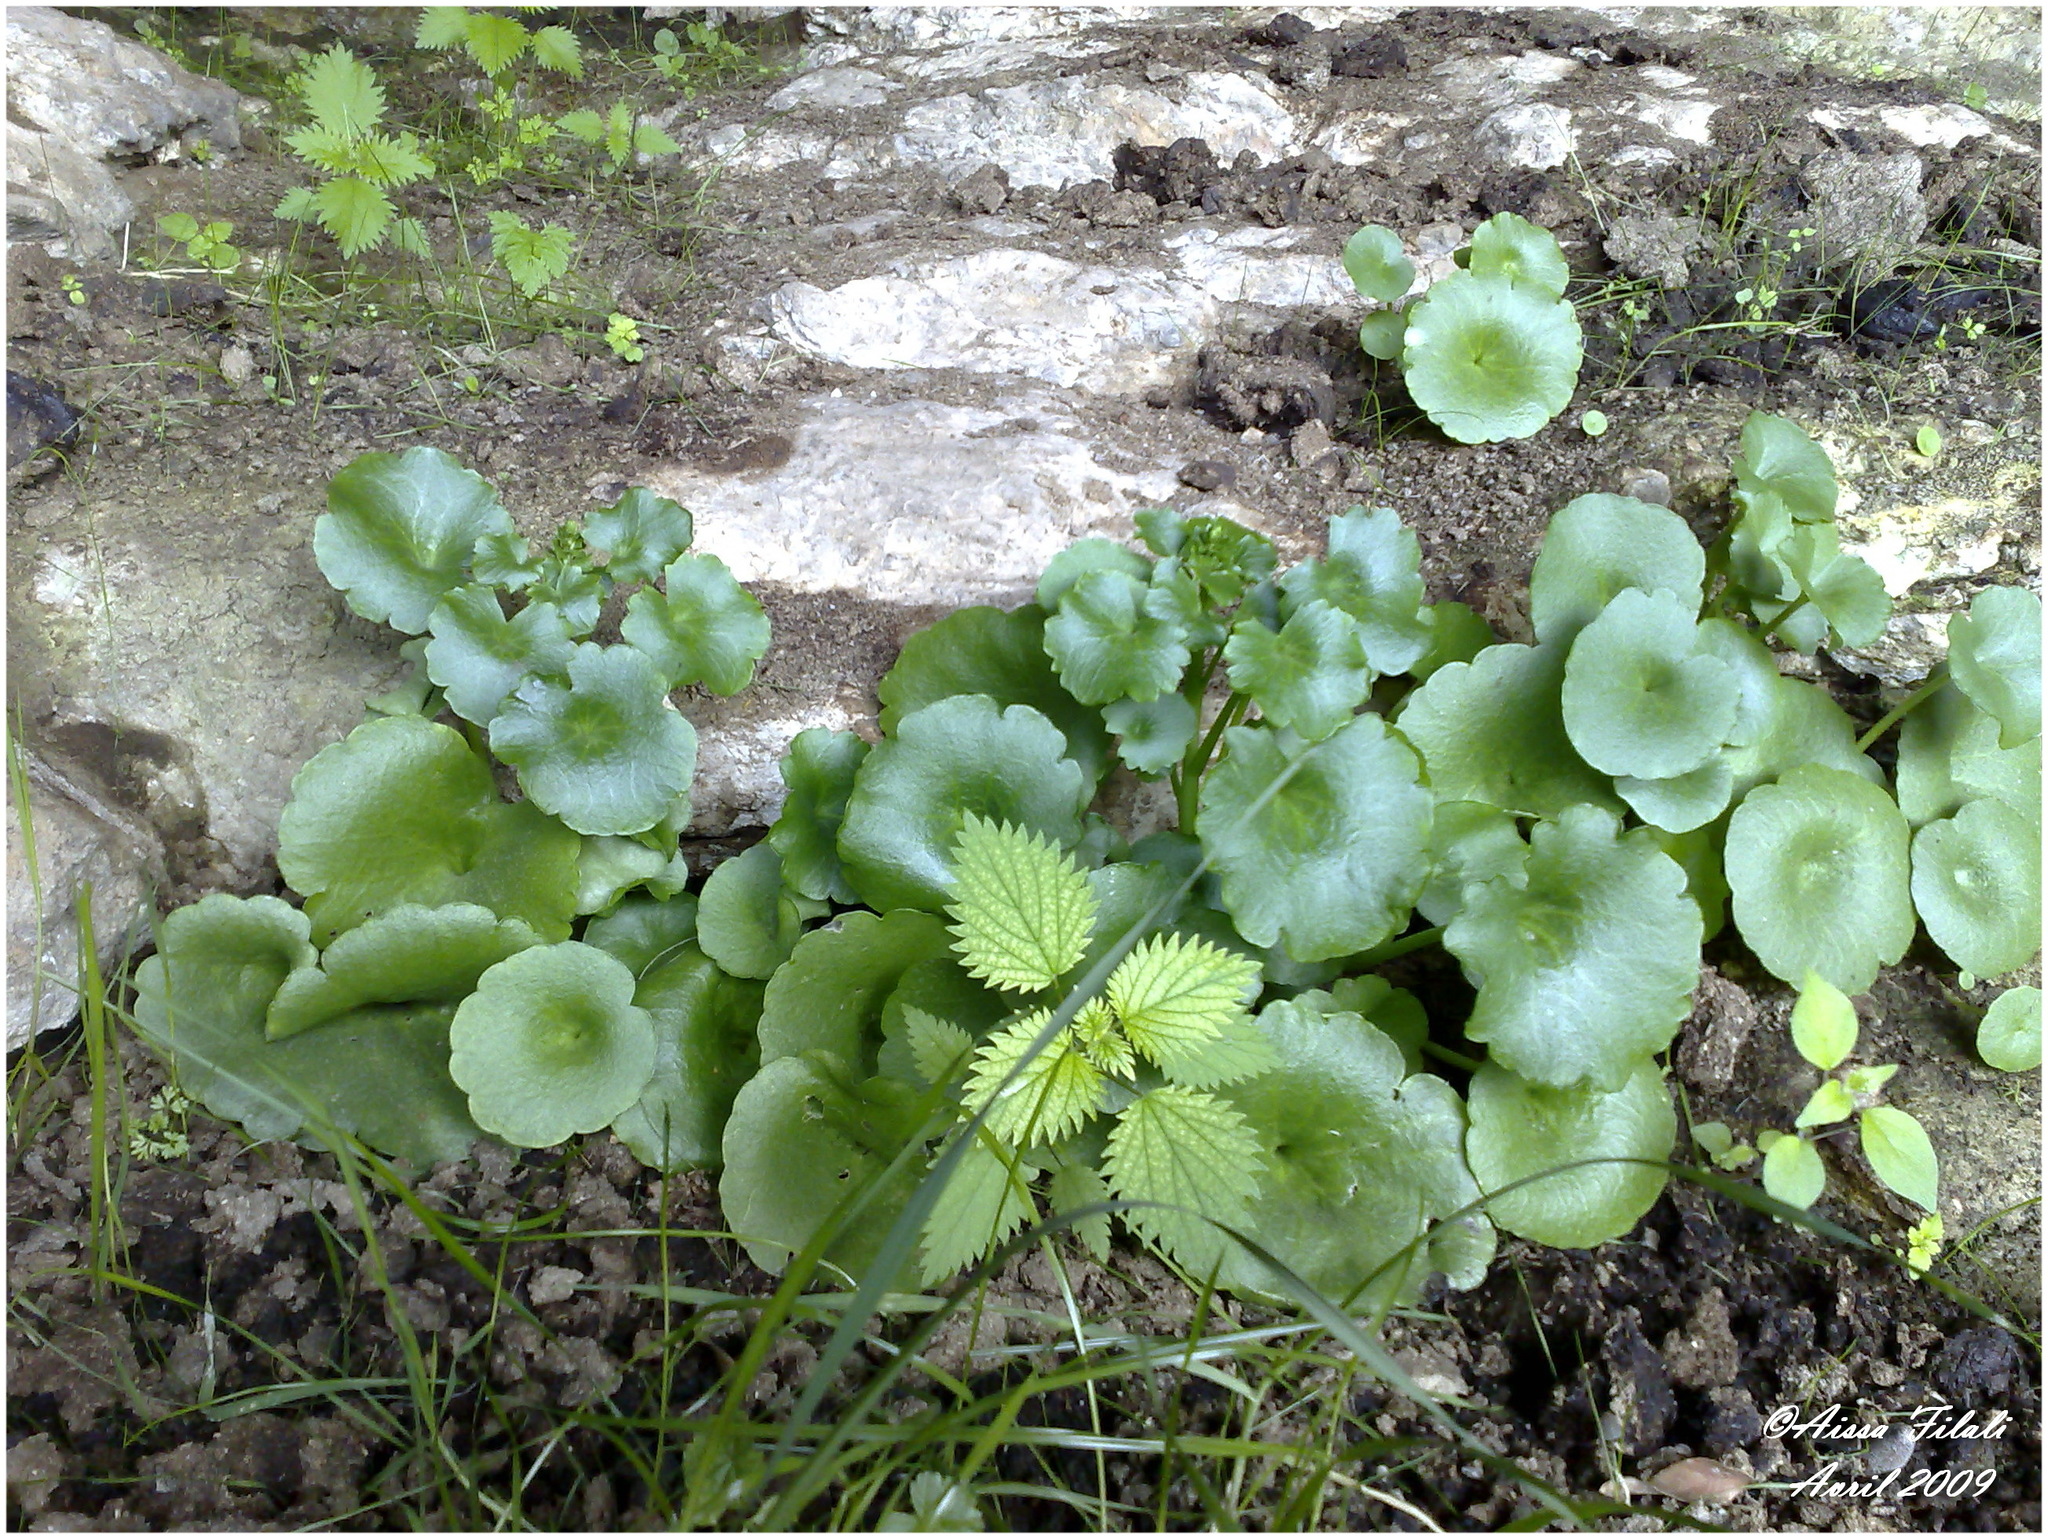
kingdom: Plantae
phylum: Tracheophyta
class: Magnoliopsida
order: Saxifragales
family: Crassulaceae
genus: Umbilicus
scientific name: Umbilicus rupestris
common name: Navelwort
